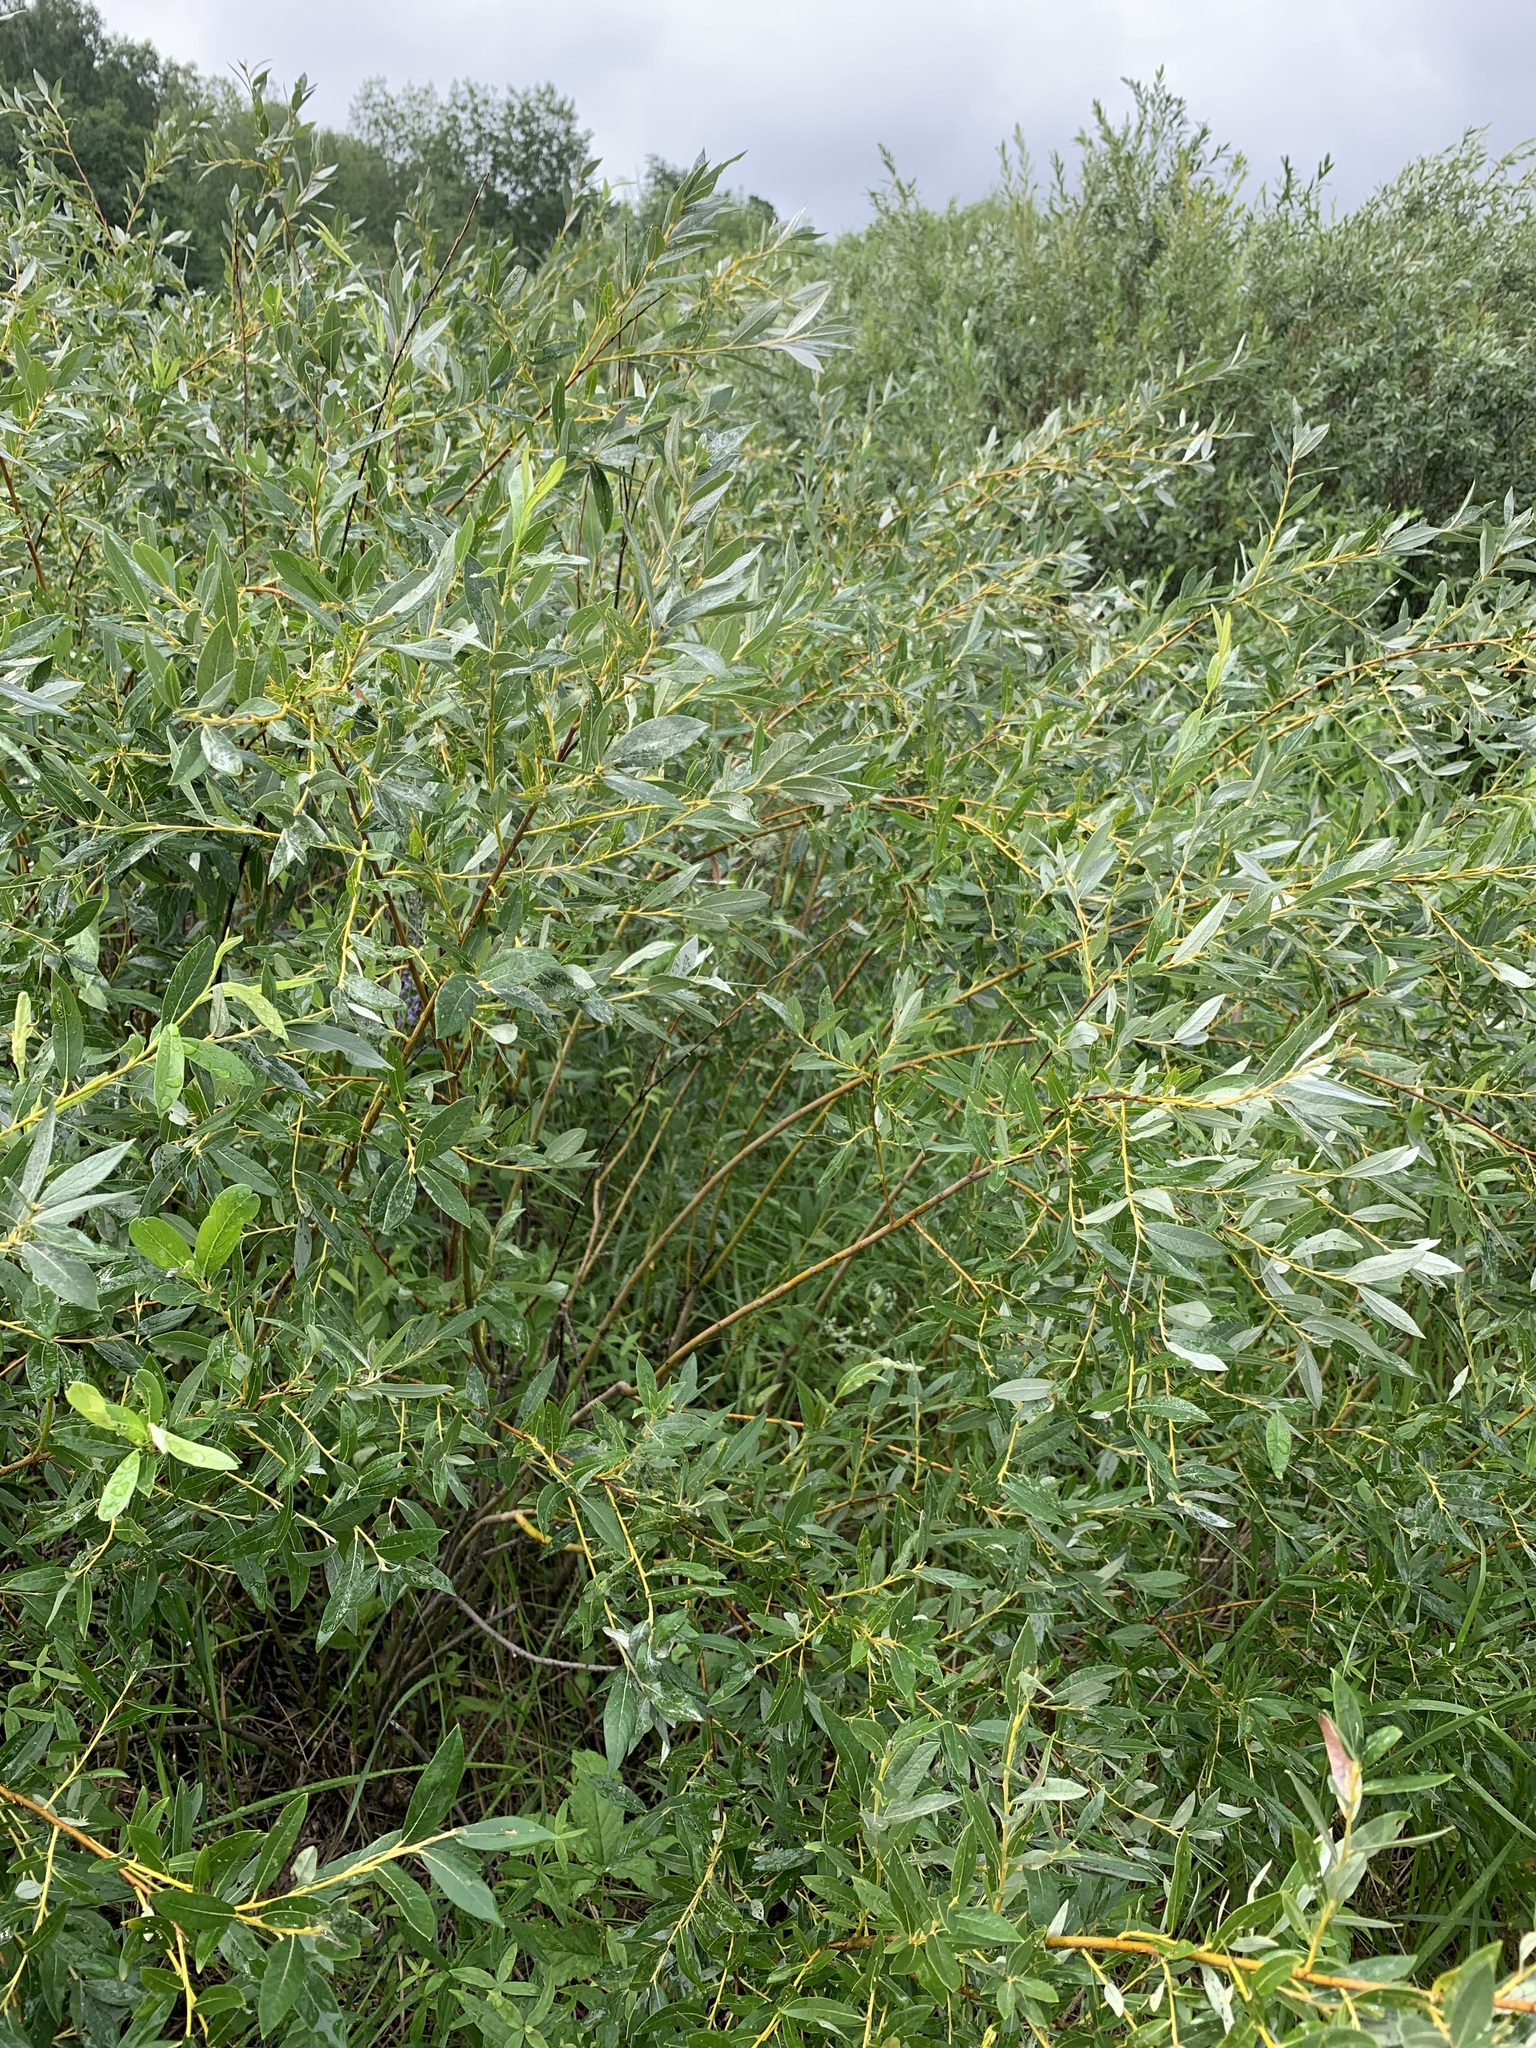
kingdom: Plantae
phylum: Tracheophyta
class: Magnoliopsida
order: Malpighiales
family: Salicaceae
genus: Salix
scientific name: Salix rosmarinifolia
